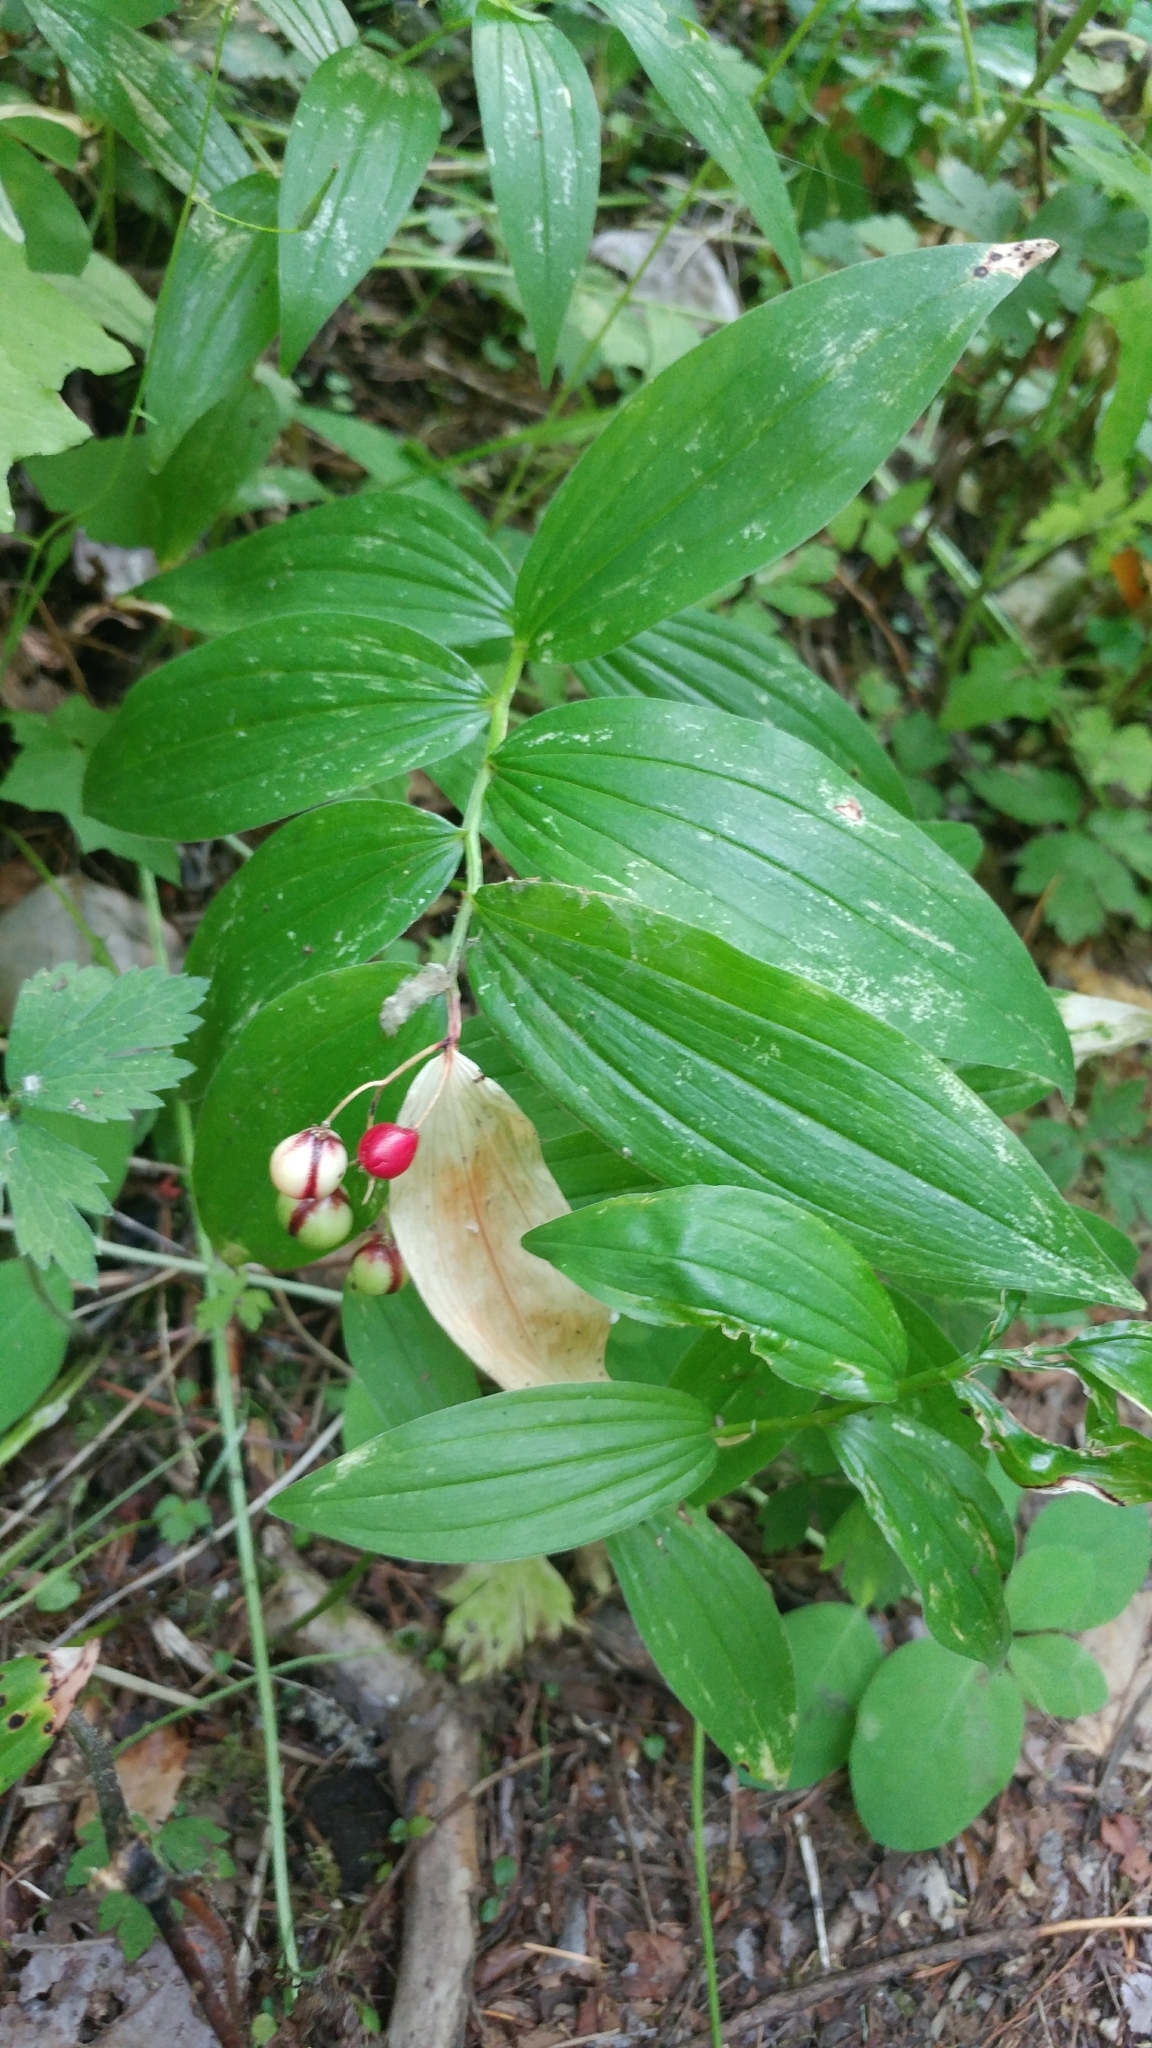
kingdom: Plantae
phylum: Tracheophyta
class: Liliopsida
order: Asparagales
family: Asparagaceae
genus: Maianthemum
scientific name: Maianthemum stellatum
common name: Little false solomon's seal
